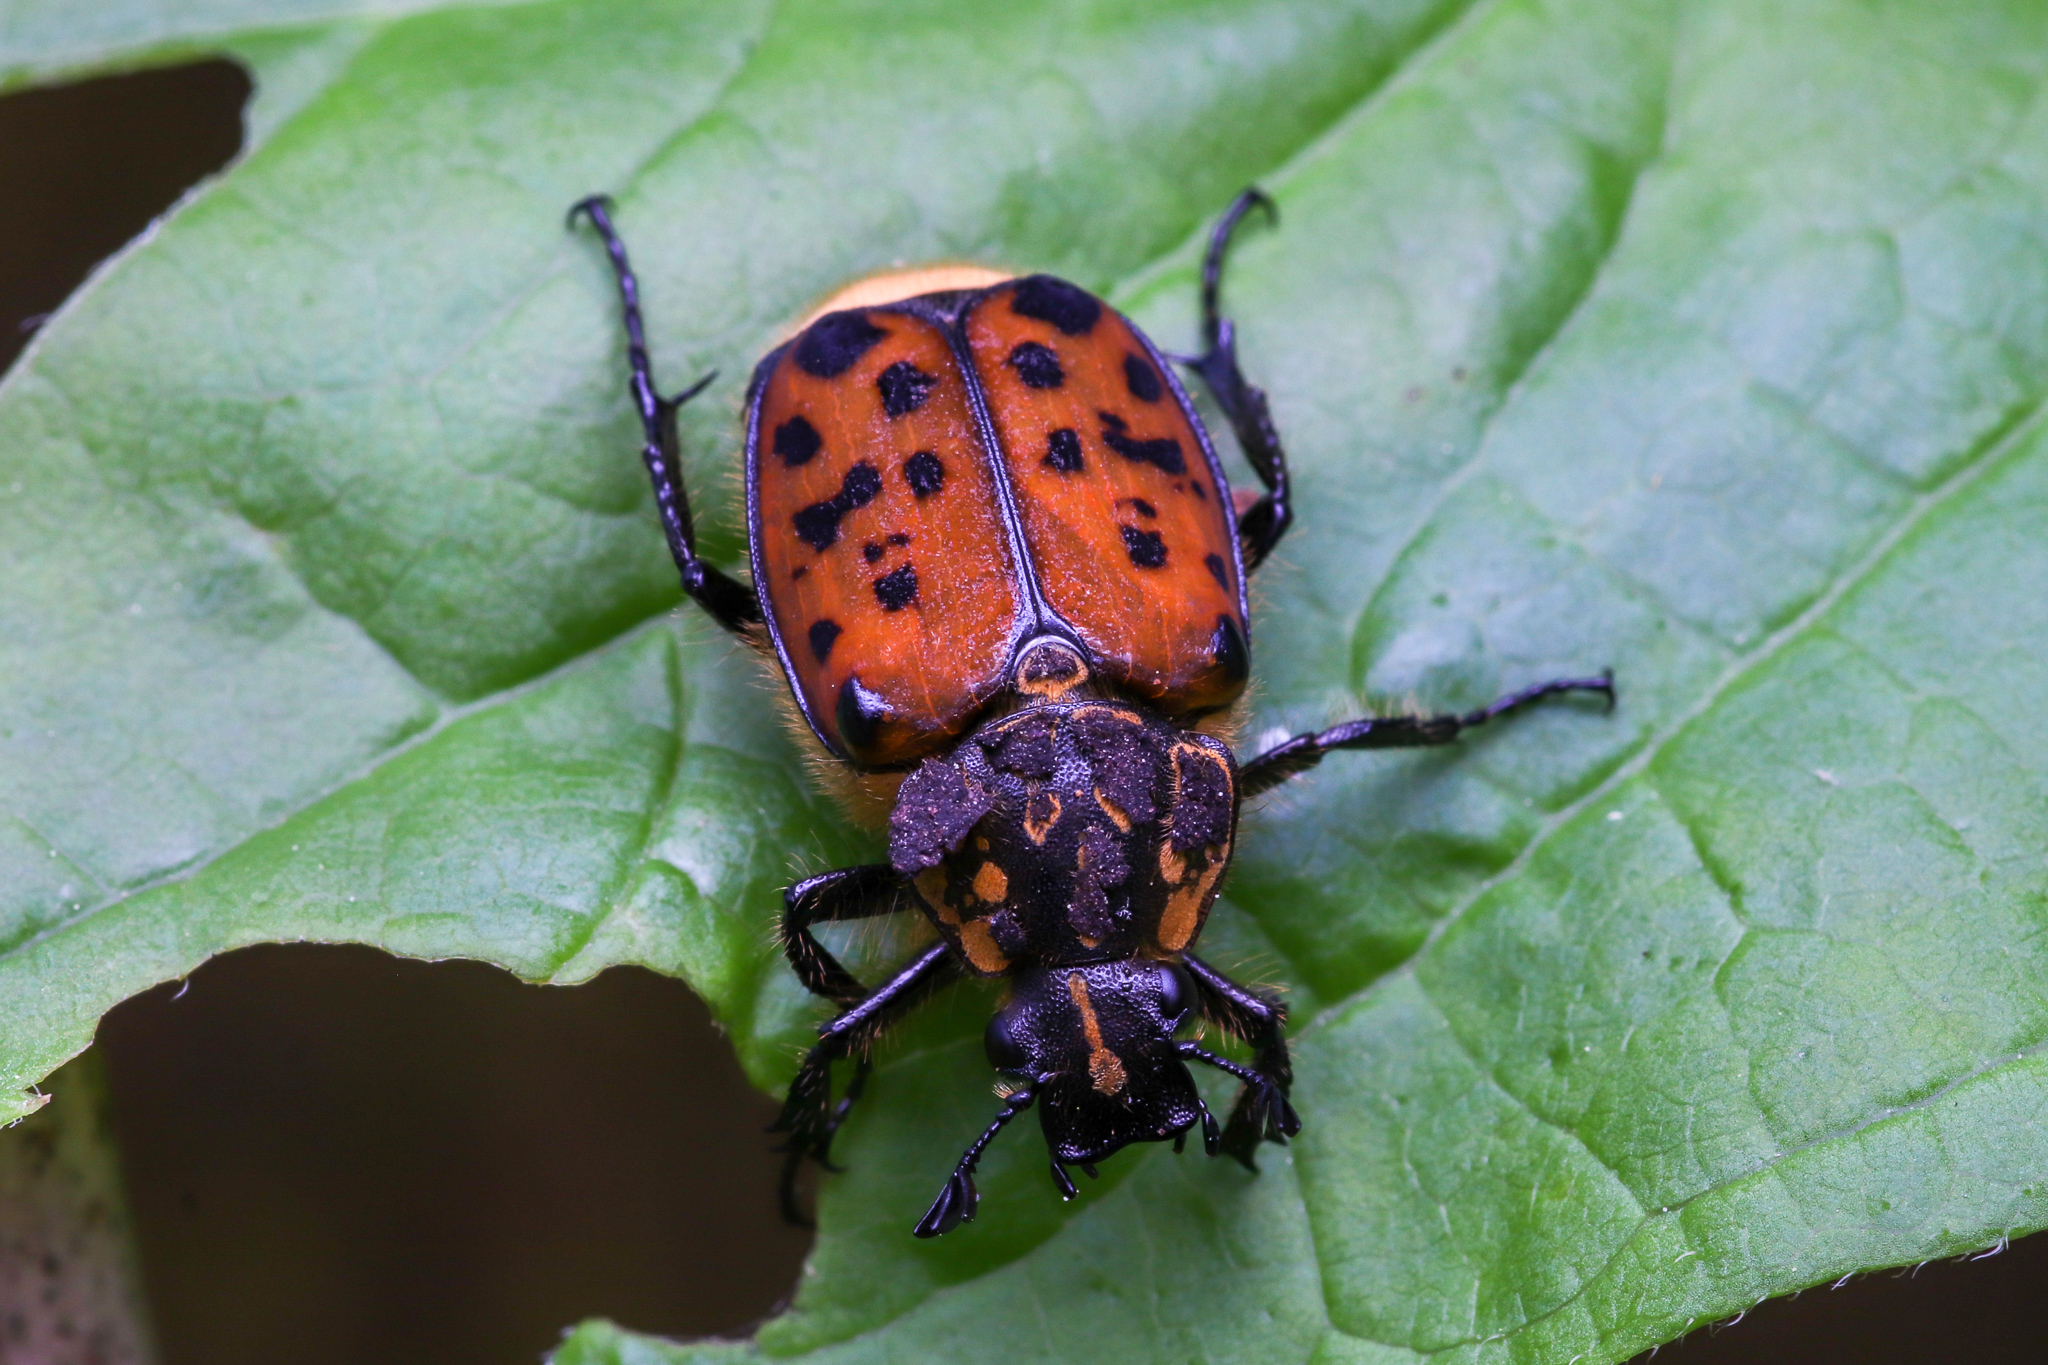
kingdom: Animalia
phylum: Arthropoda
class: Insecta
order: Coleoptera
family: Scarabaeidae
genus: Gnorimella
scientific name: Gnorimella maculosa
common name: Maculate flower beetle
